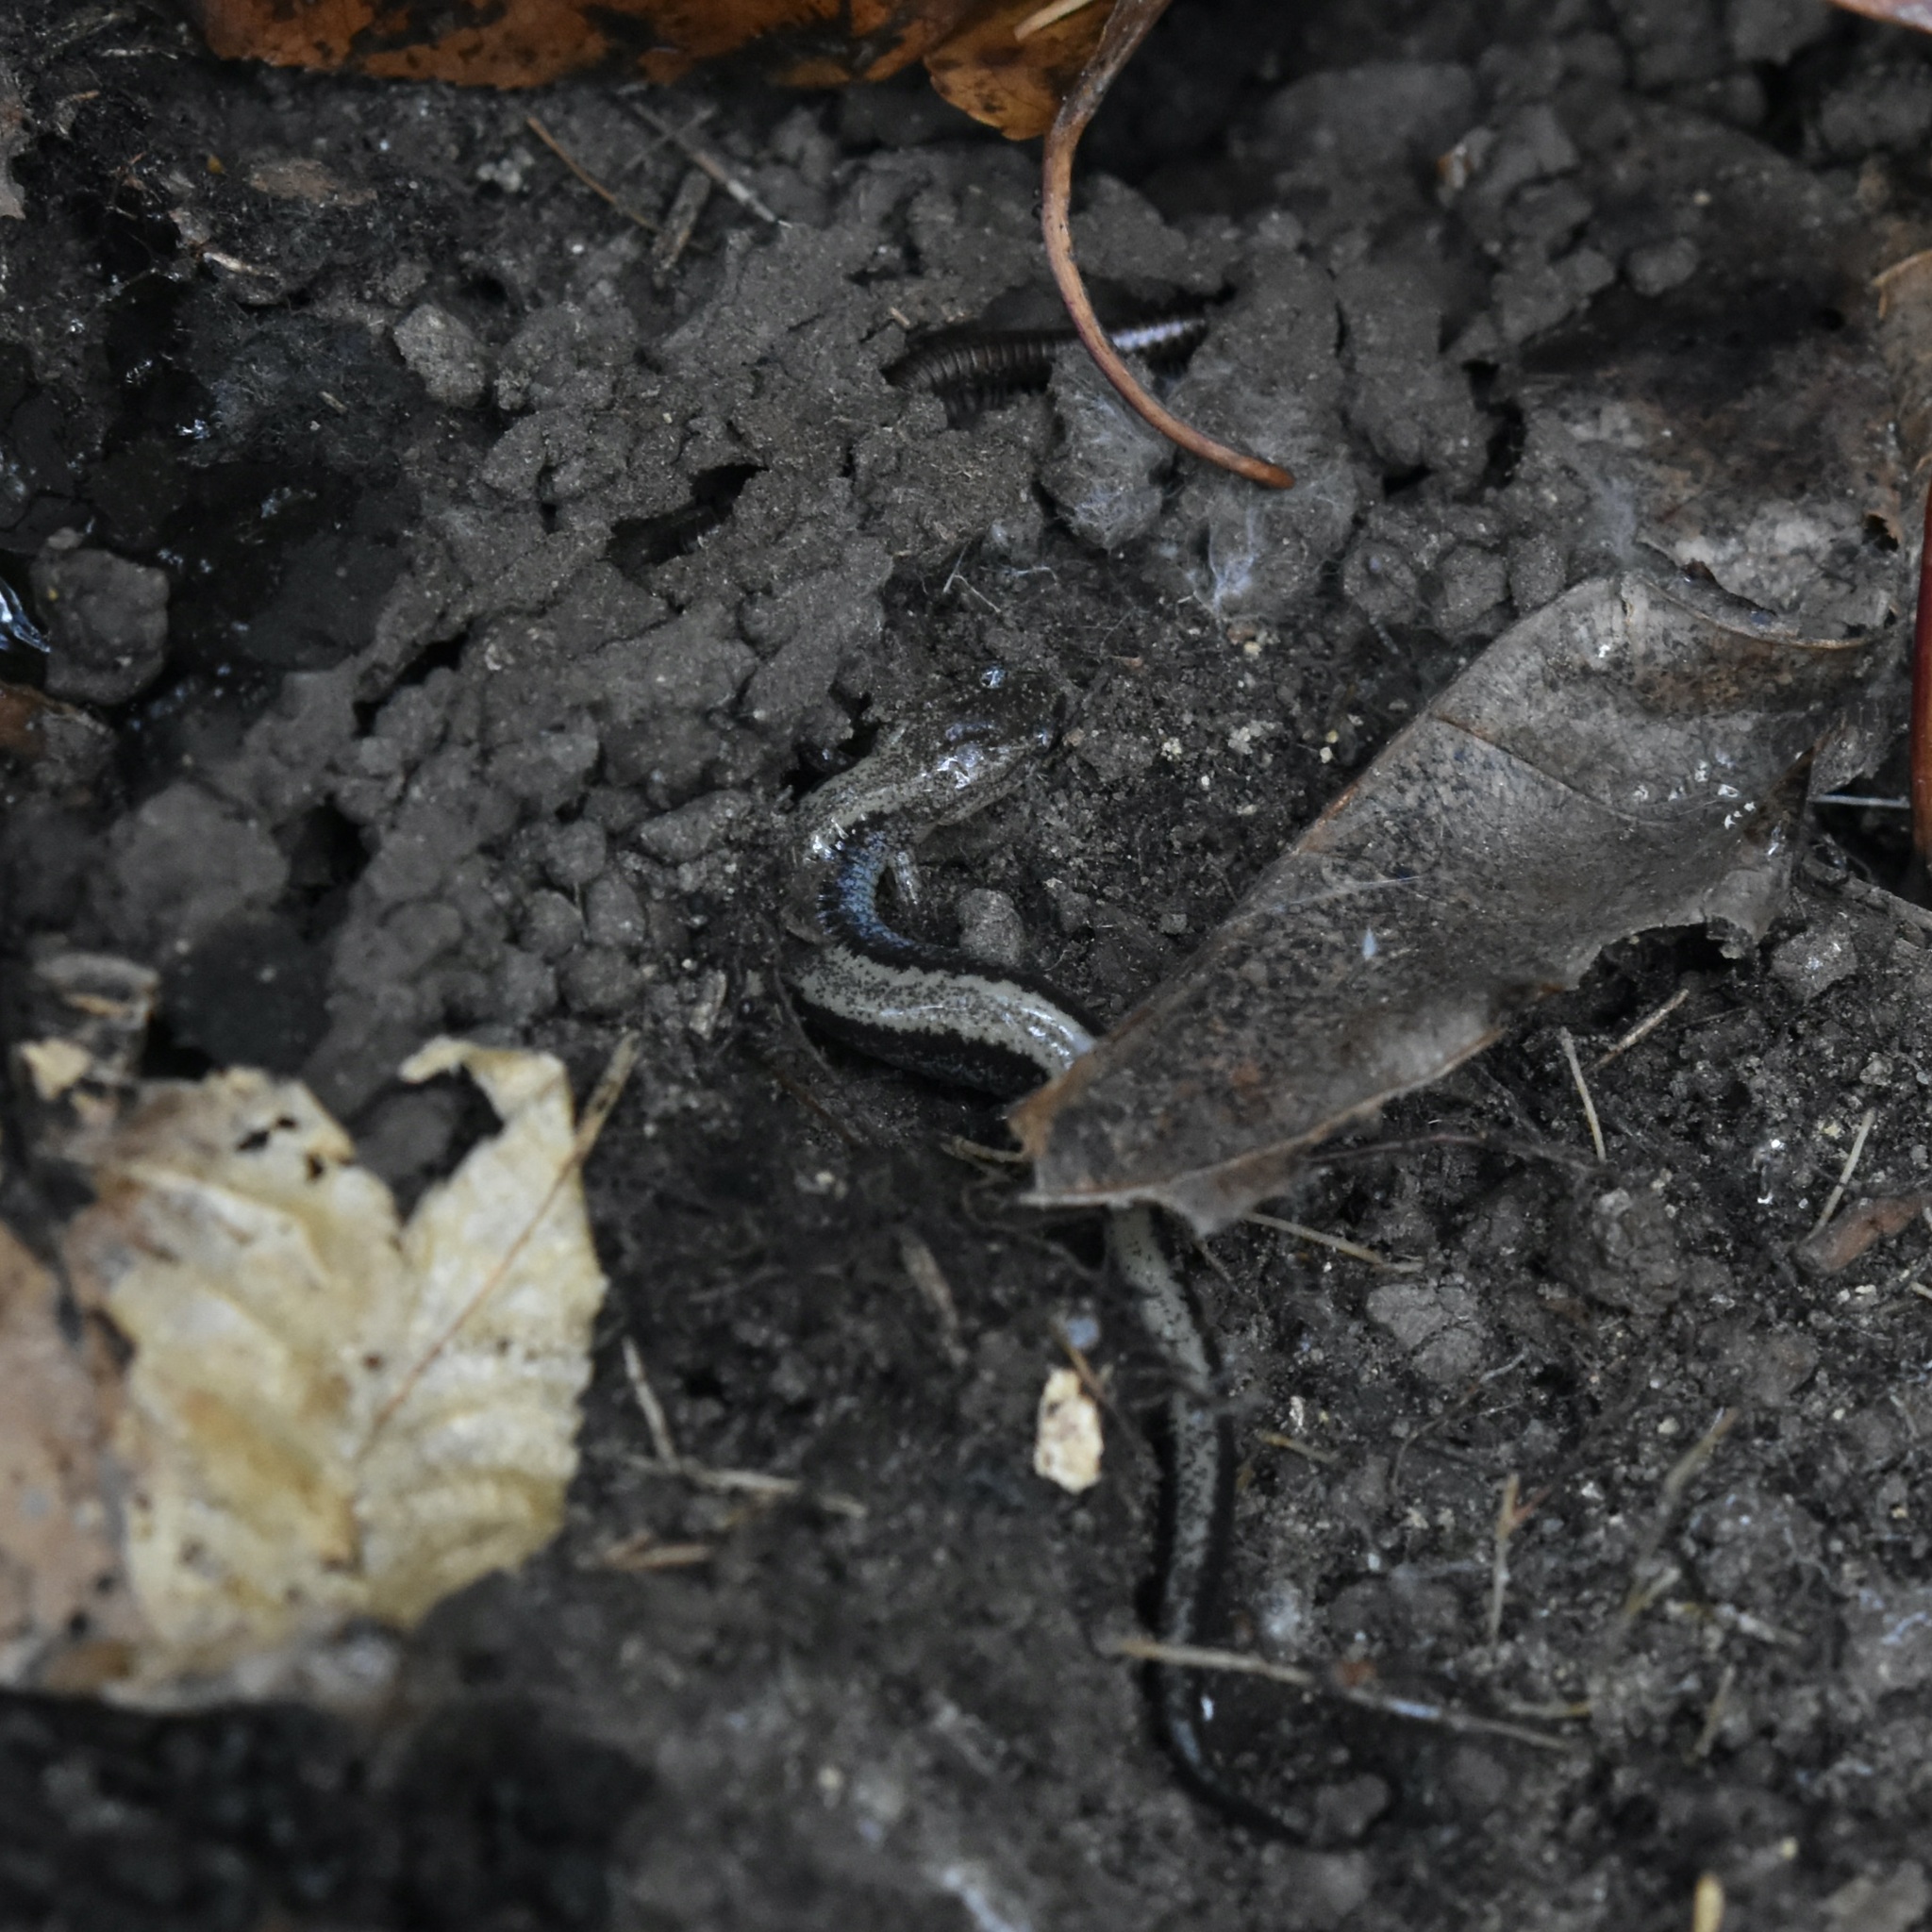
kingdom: Animalia
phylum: Chordata
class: Amphibia
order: Caudata
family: Plethodontidae
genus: Plethodon
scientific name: Plethodon cinereus
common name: Redback salamander
